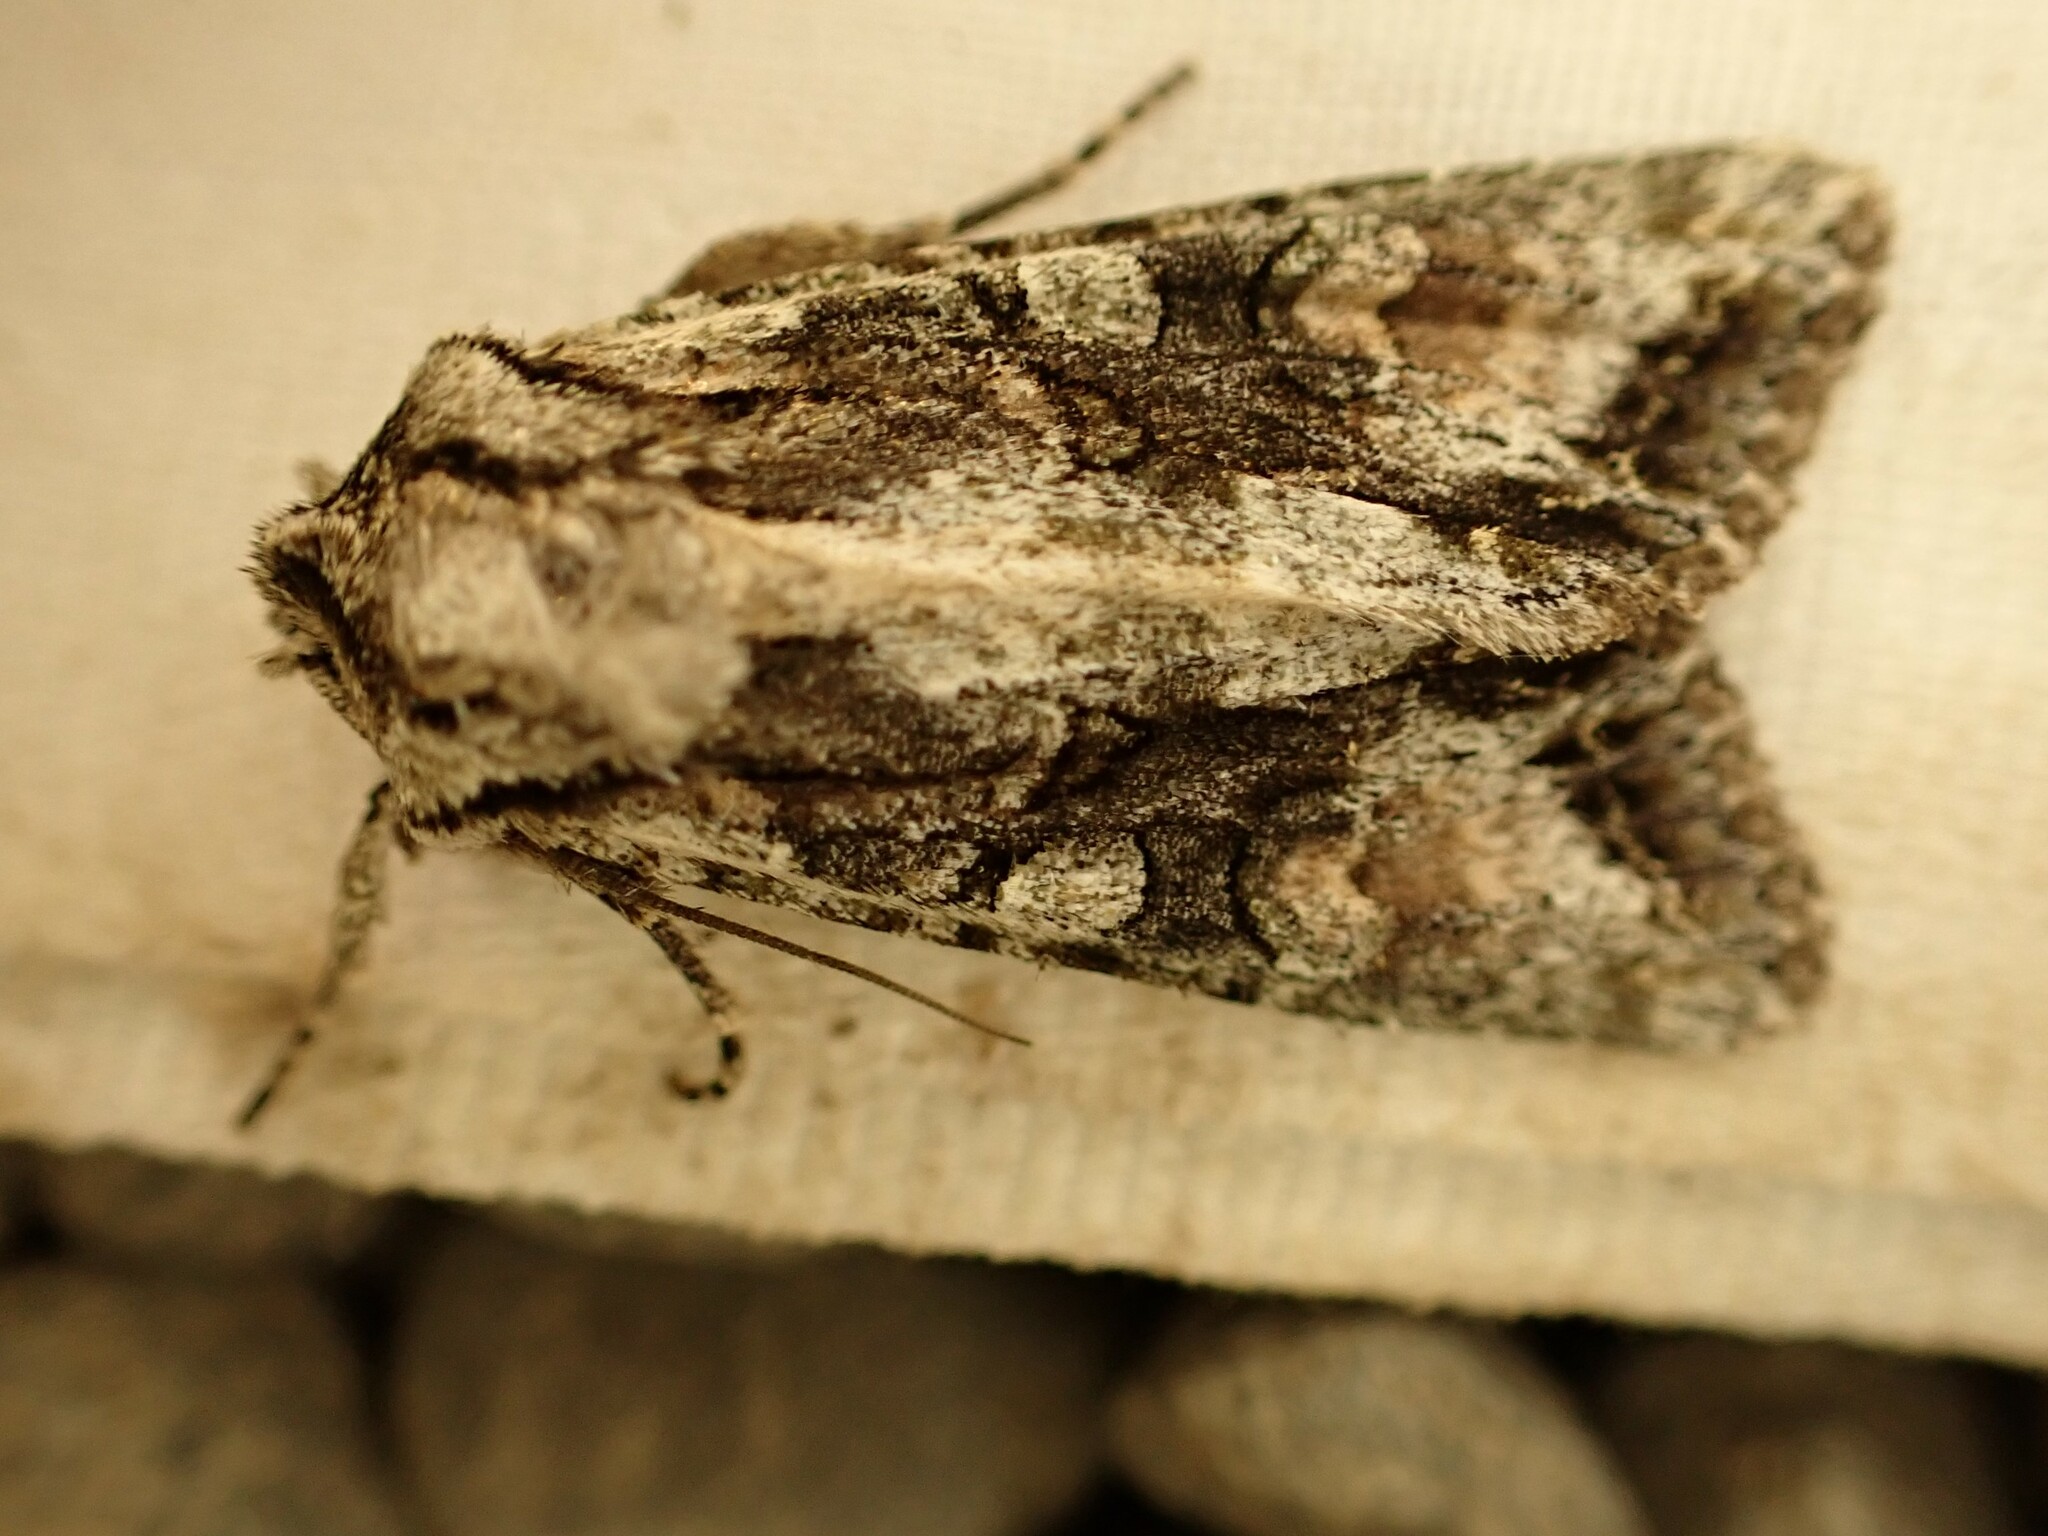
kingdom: Animalia
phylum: Arthropoda
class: Insecta
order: Lepidoptera
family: Noctuidae
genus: Ichneutica
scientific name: Ichneutica mutans
